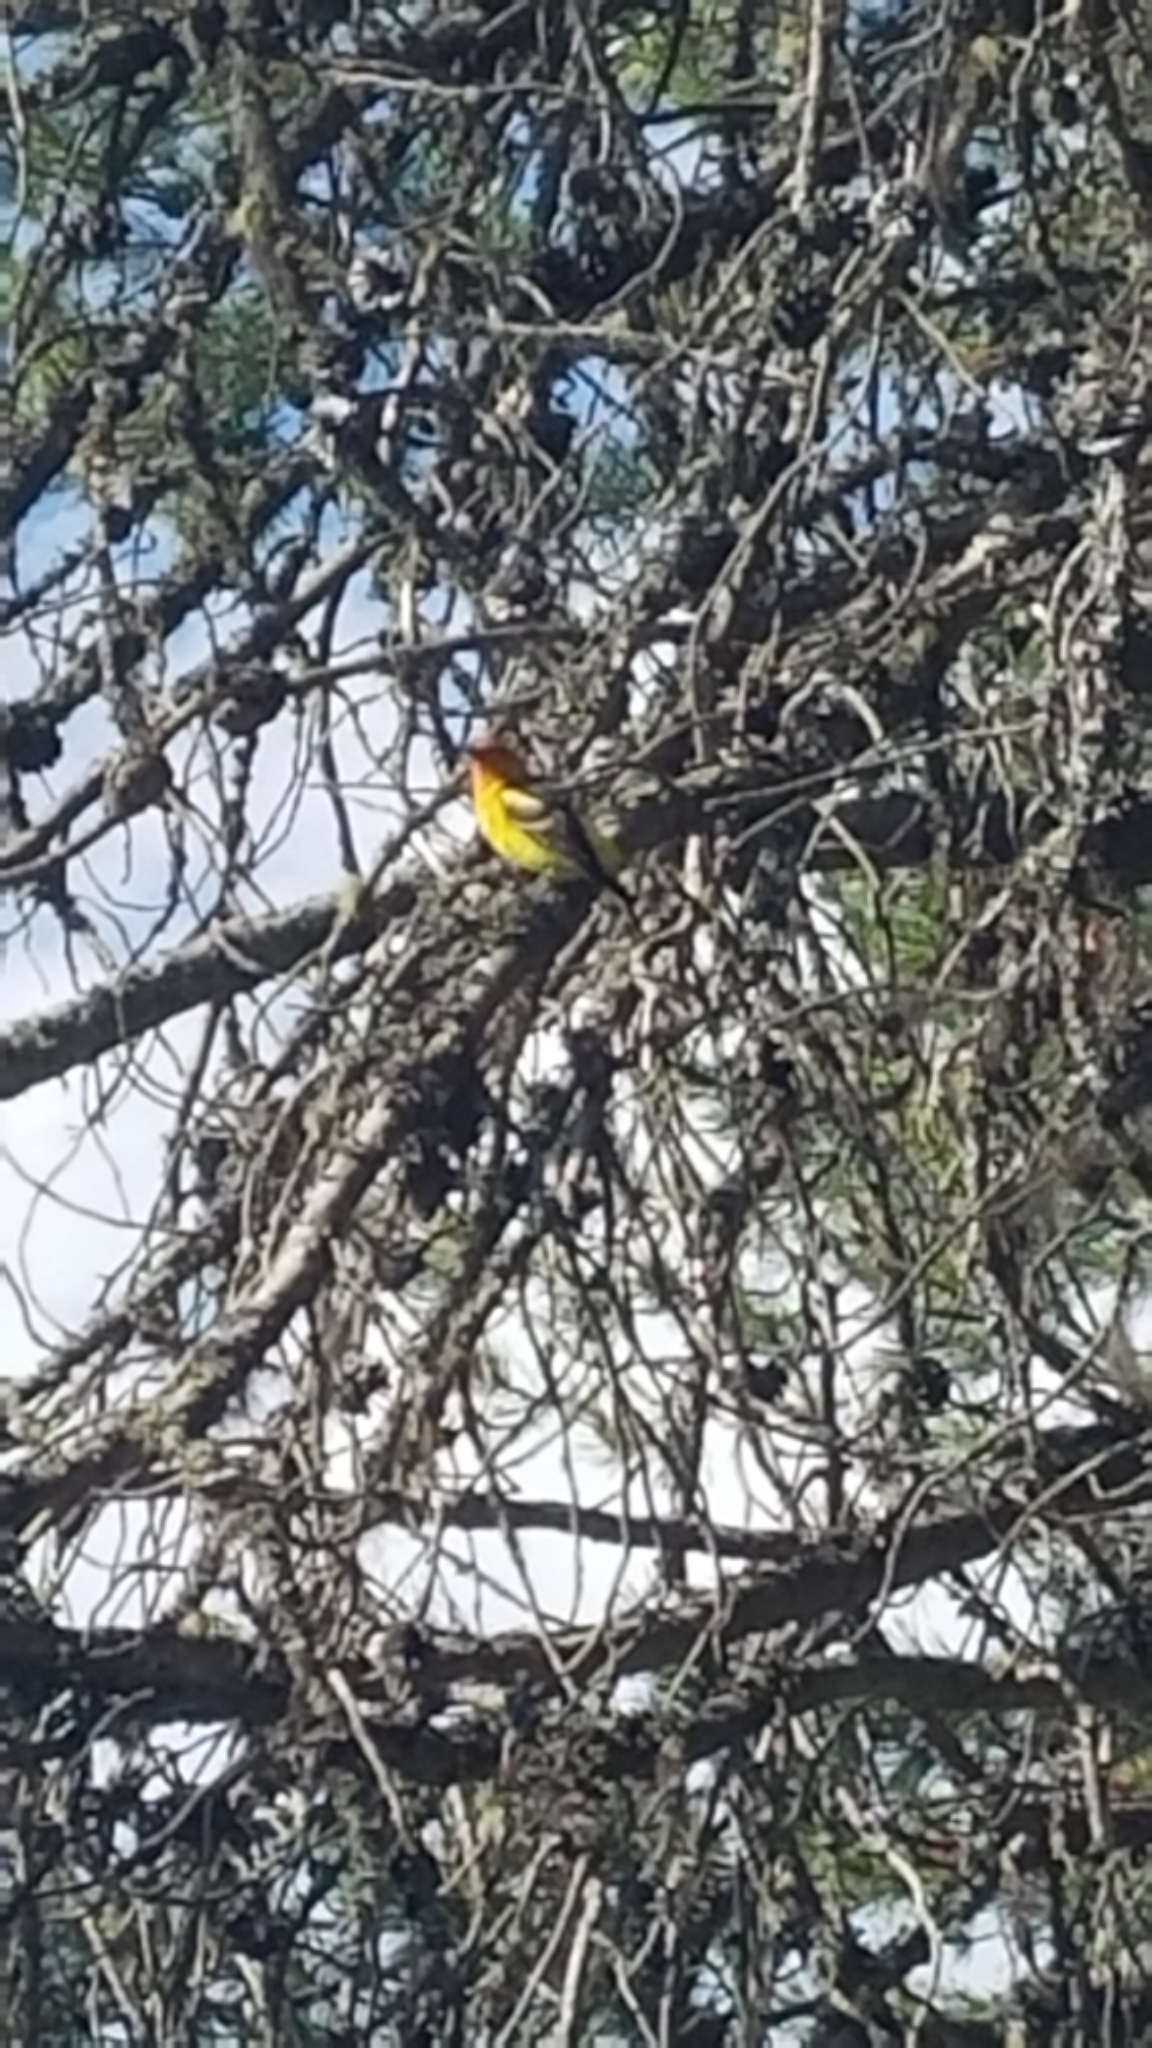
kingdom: Animalia
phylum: Chordata
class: Aves
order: Passeriformes
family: Cardinalidae
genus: Piranga
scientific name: Piranga ludoviciana
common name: Western tanager
